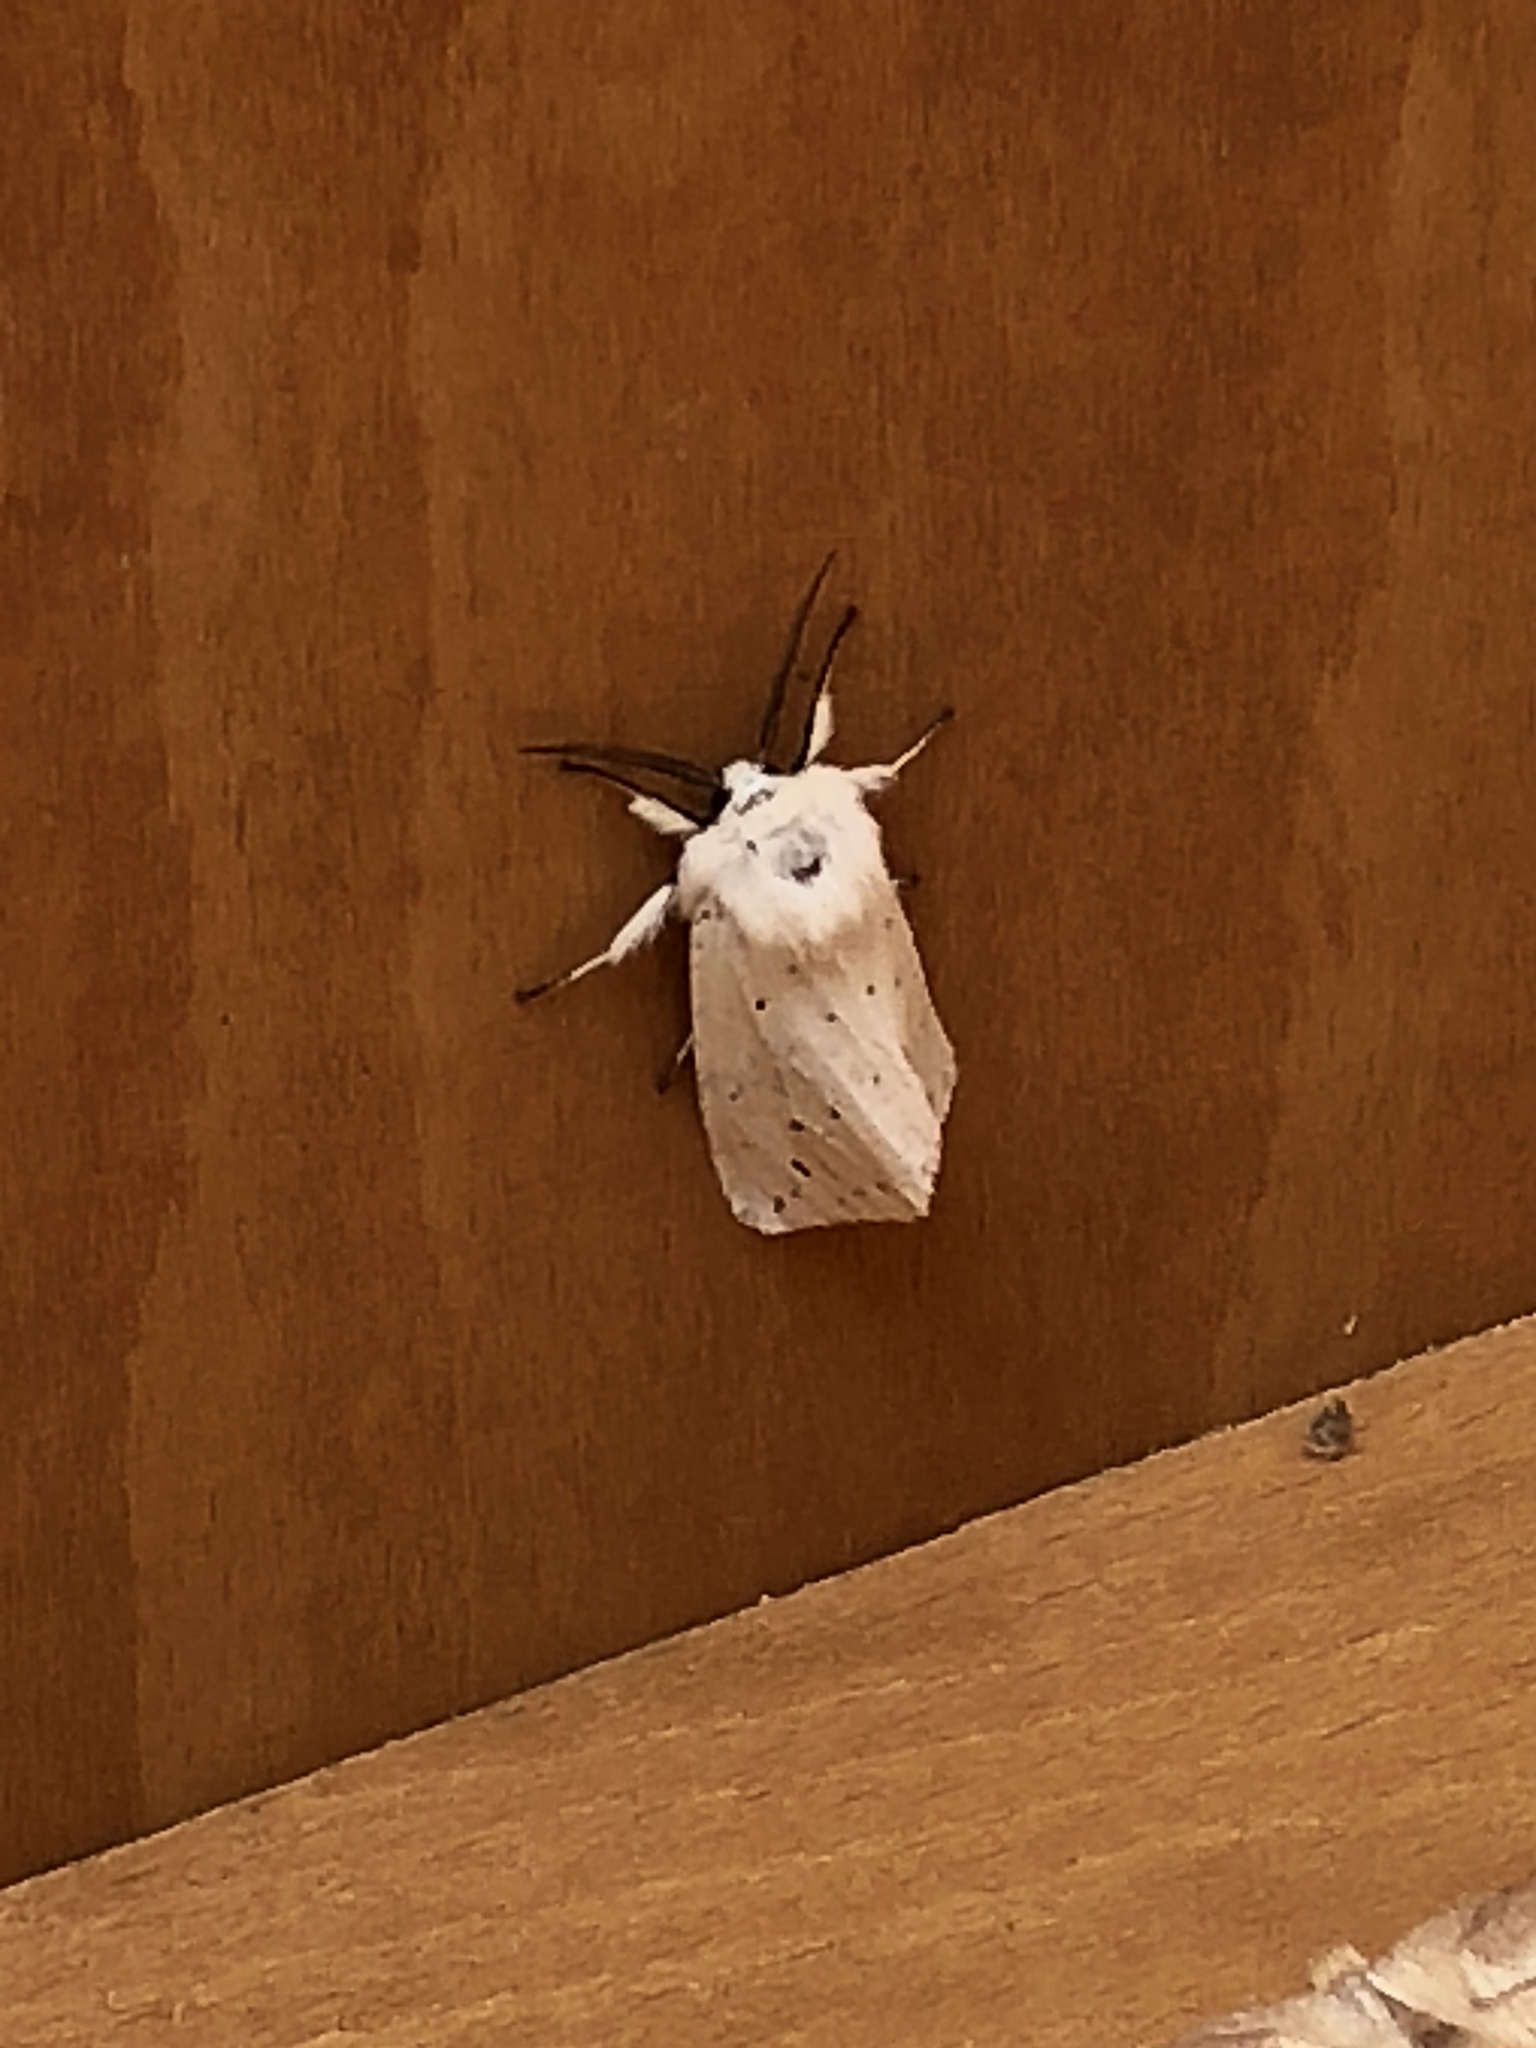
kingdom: Animalia
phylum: Arthropoda
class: Insecta
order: Lepidoptera
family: Erebidae
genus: Spilosoma
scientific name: Spilosoma lubricipeda
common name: White ermine
